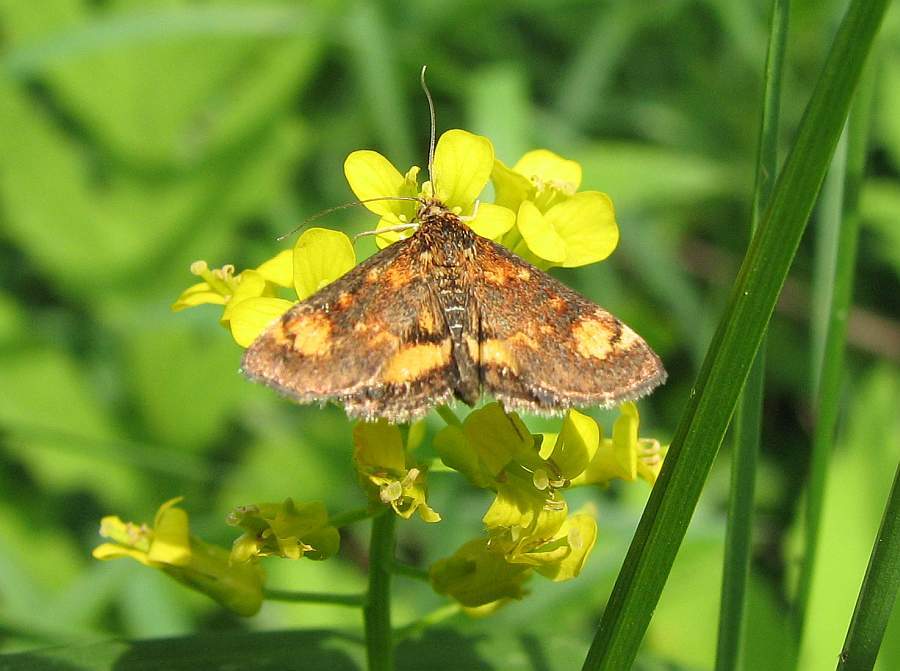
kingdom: Animalia
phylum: Arthropoda
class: Insecta
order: Lepidoptera
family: Crambidae
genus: Pyrausta
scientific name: Pyrausta orphisalis
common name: Orange mint moth
